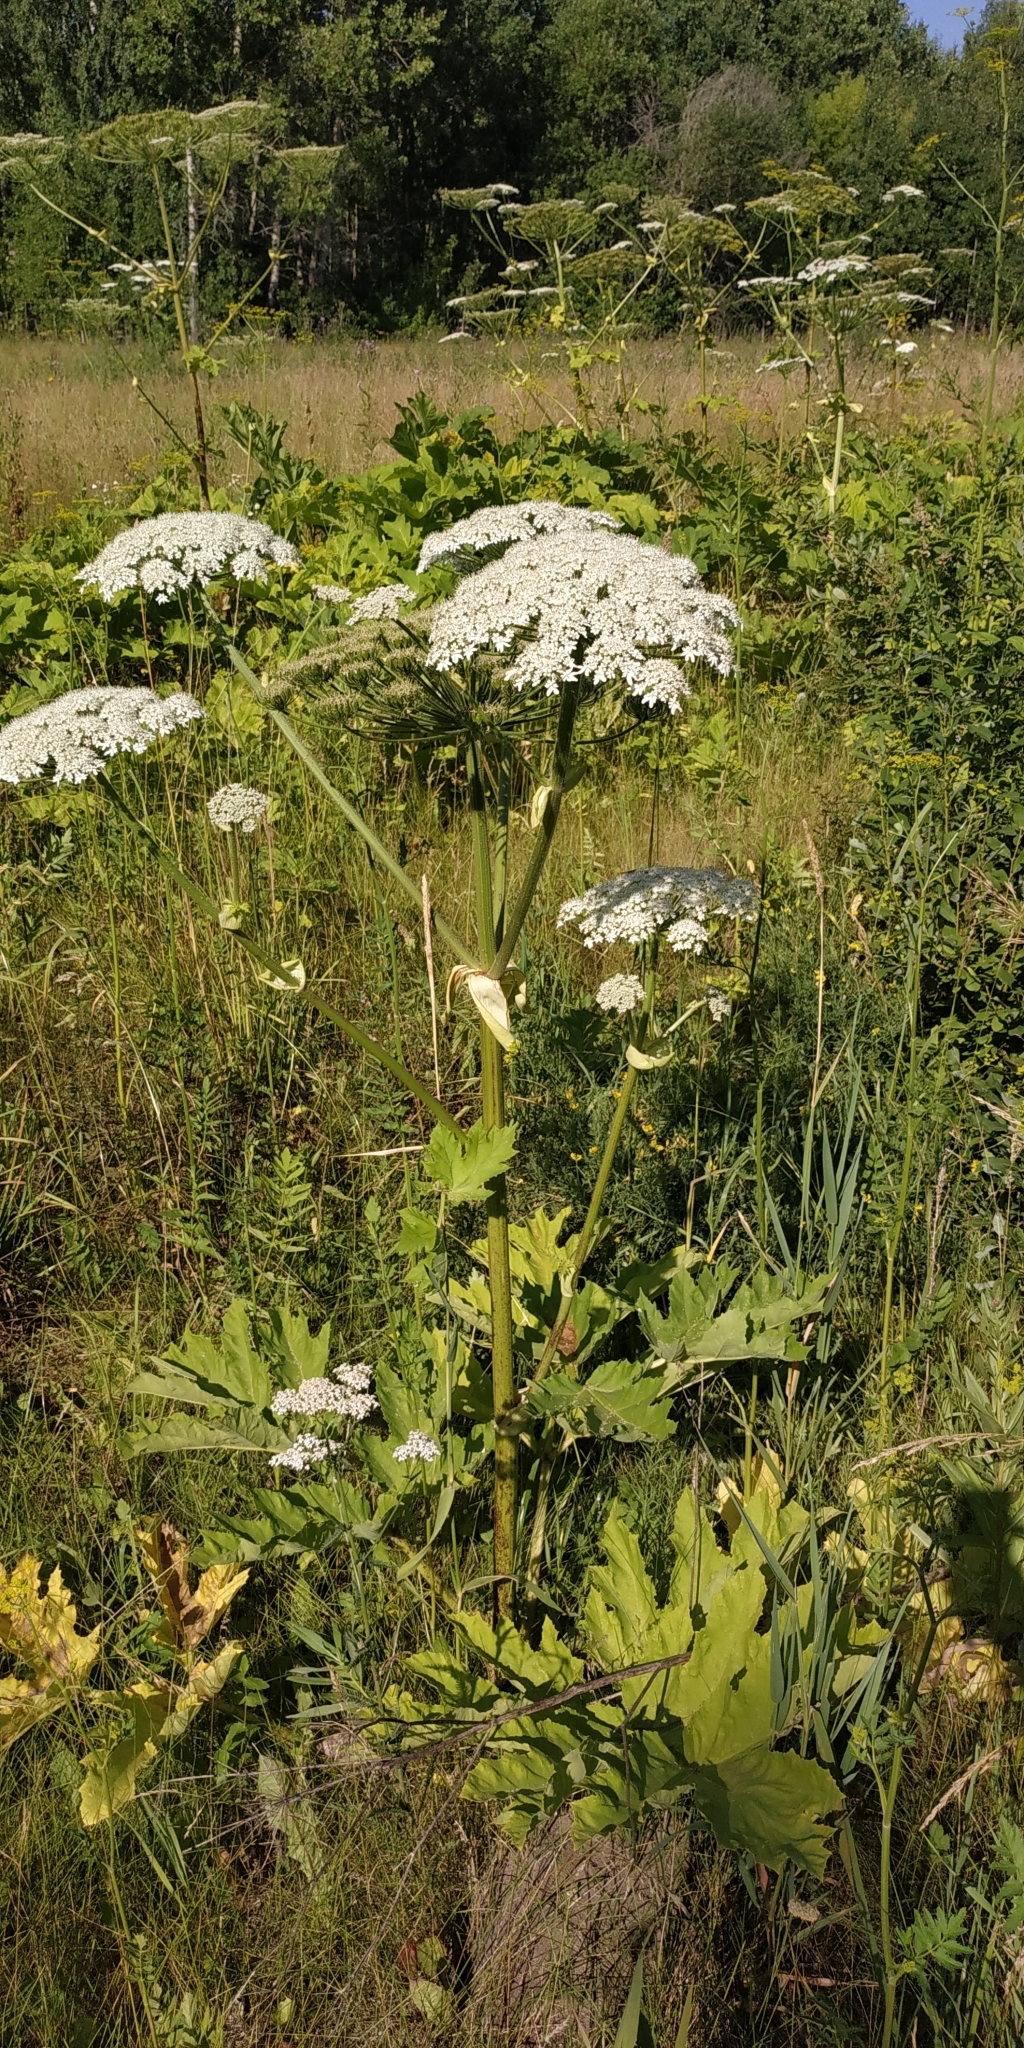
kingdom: Plantae
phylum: Tracheophyta
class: Magnoliopsida
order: Apiales
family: Apiaceae
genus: Heracleum
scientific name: Heracleum sosnowskyi
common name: Sosnowsky's hogweed
